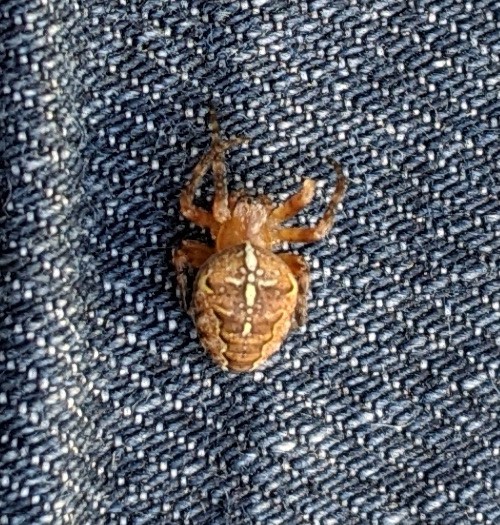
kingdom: Animalia
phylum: Arthropoda
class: Arachnida
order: Araneae
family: Araneidae
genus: Araneus
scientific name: Araneus diadematus
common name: Cross orbweaver
